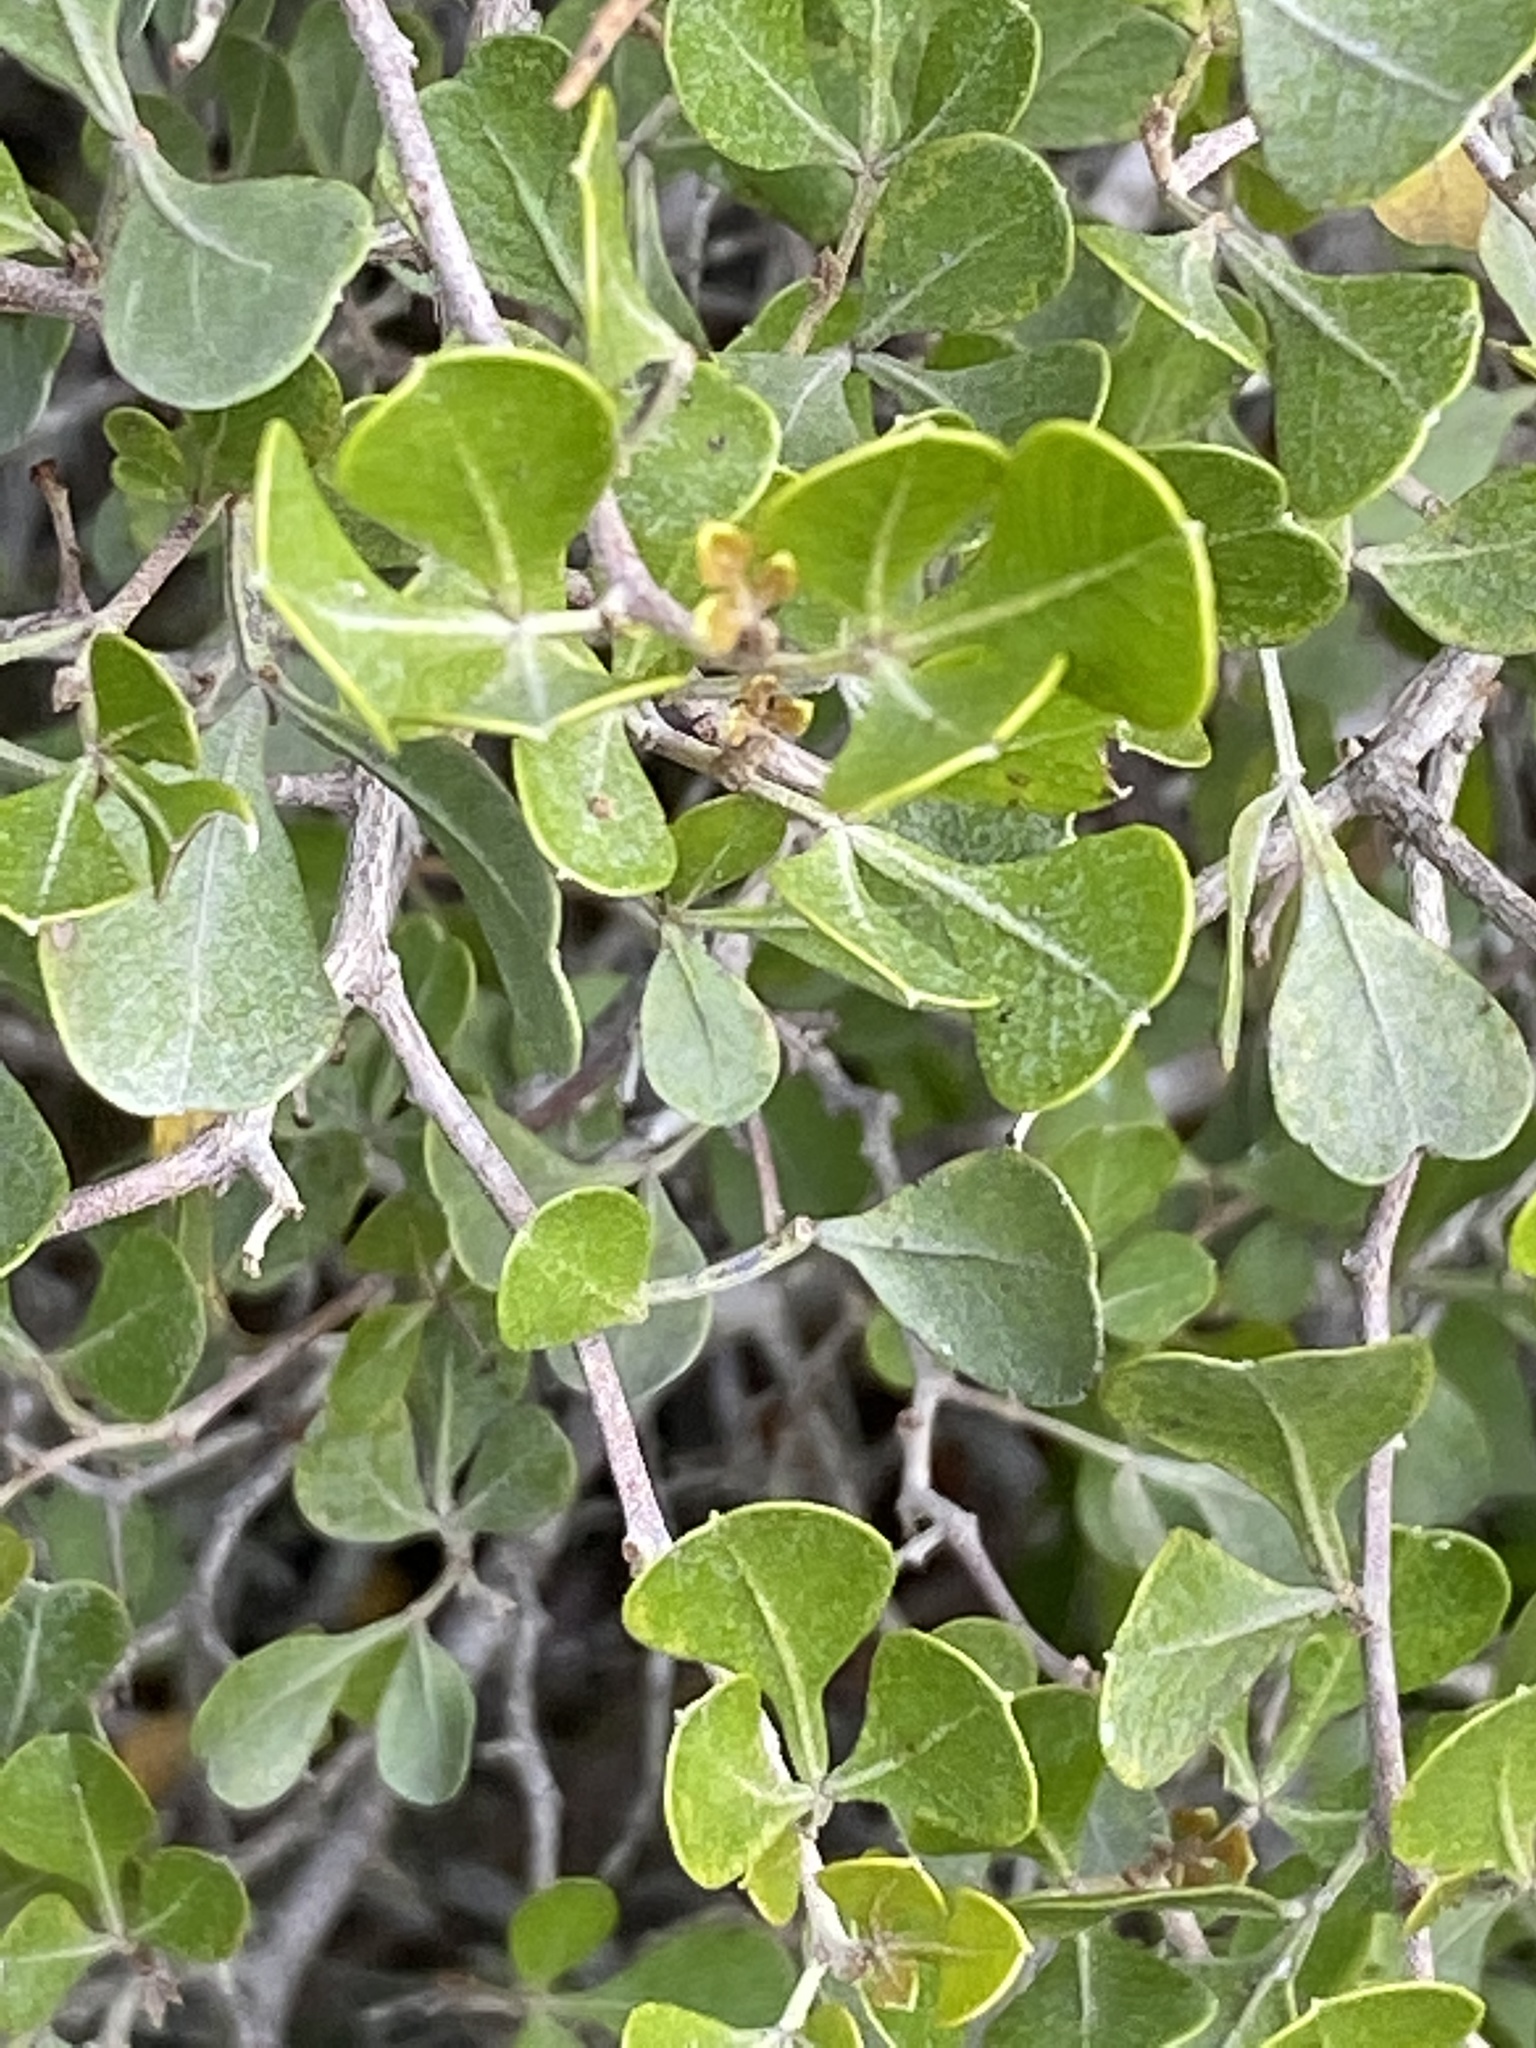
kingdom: Plantae
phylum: Tracheophyta
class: Magnoliopsida
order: Sapindales
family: Anacardiaceae
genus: Searsia
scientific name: Searsia glauca
